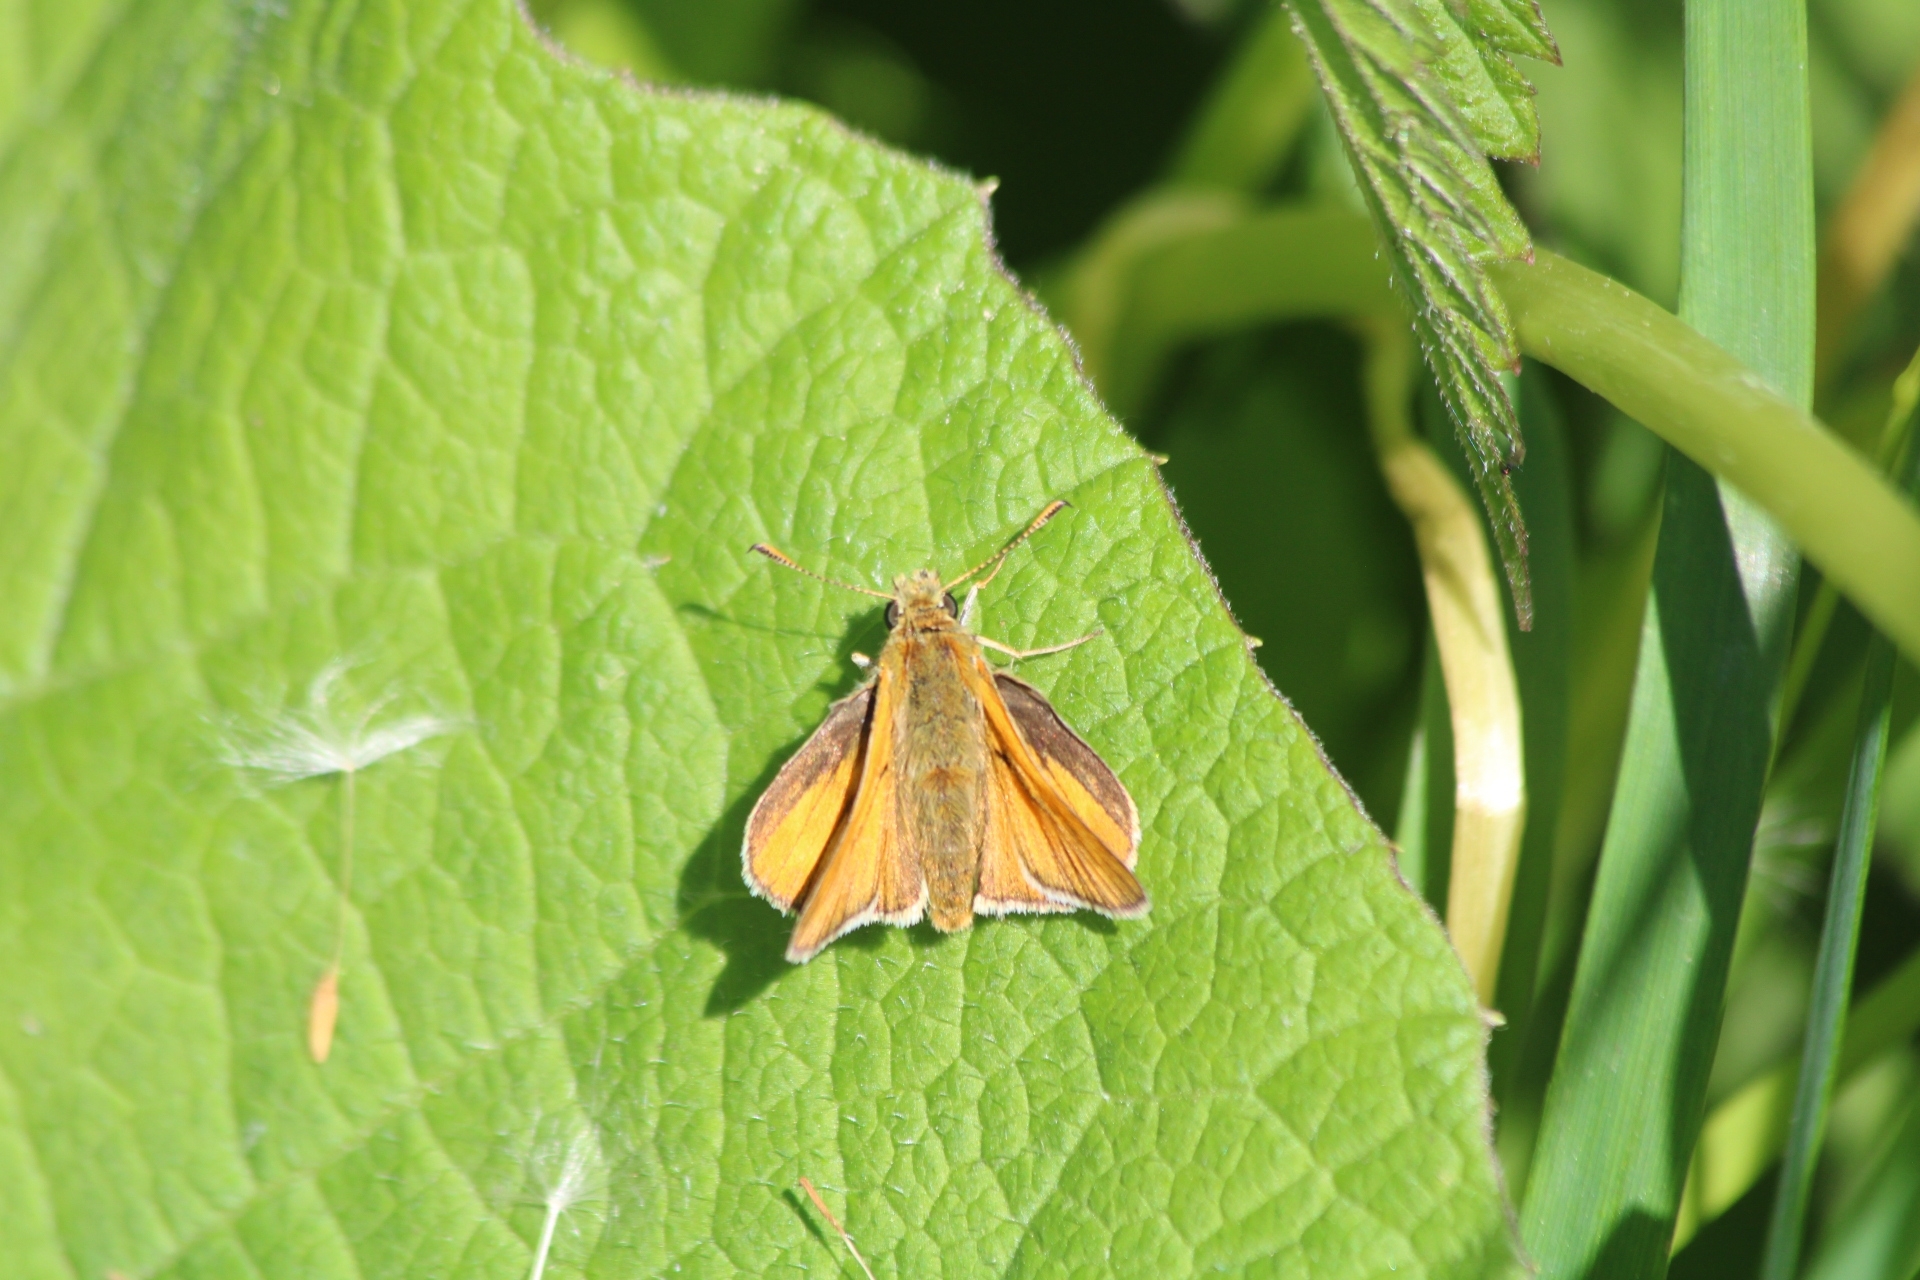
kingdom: Animalia
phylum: Arthropoda
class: Insecta
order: Lepidoptera
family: Hesperiidae
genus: Ochlodes
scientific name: Ochlodes venata
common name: Large skipper
